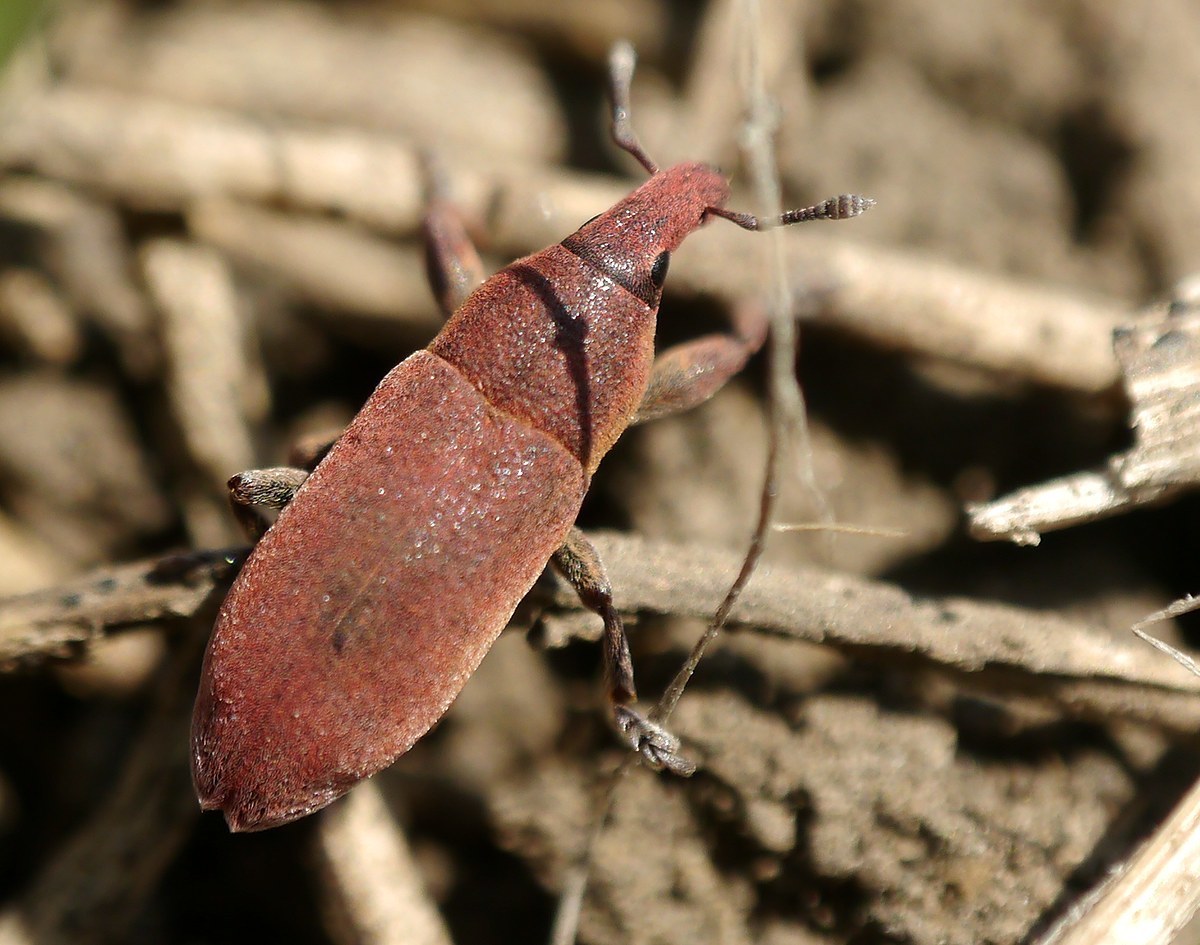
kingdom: Animalia
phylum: Arthropoda
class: Insecta
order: Coleoptera
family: Curculionidae
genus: Lixus
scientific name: Lixus angustus
